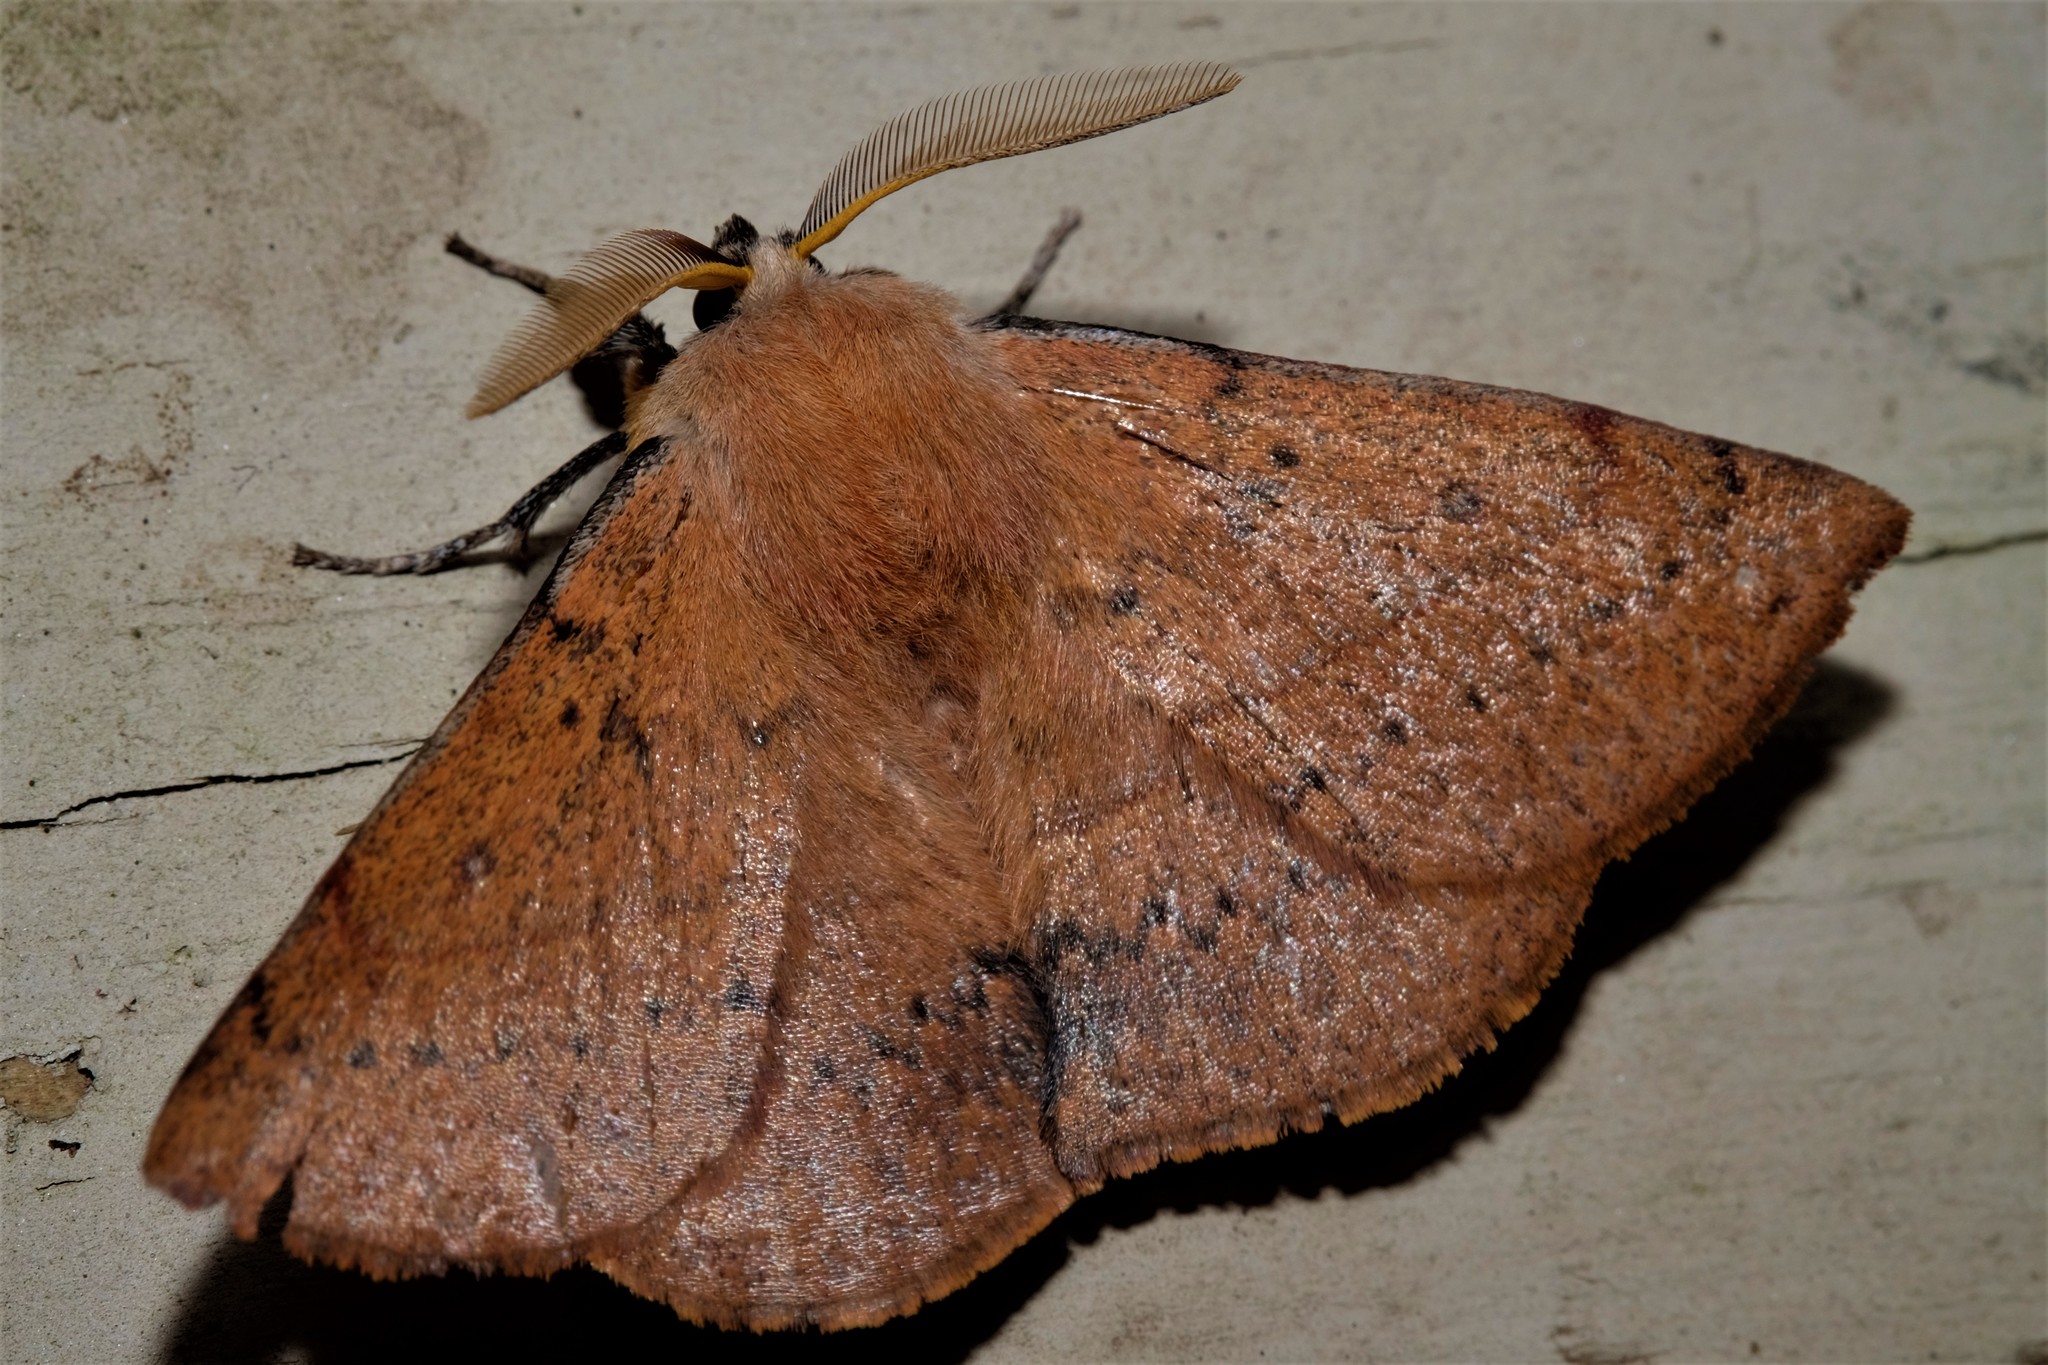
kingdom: Animalia
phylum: Arthropoda
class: Insecta
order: Lepidoptera
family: Anthelidae
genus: Anthela
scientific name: Anthela acuta
